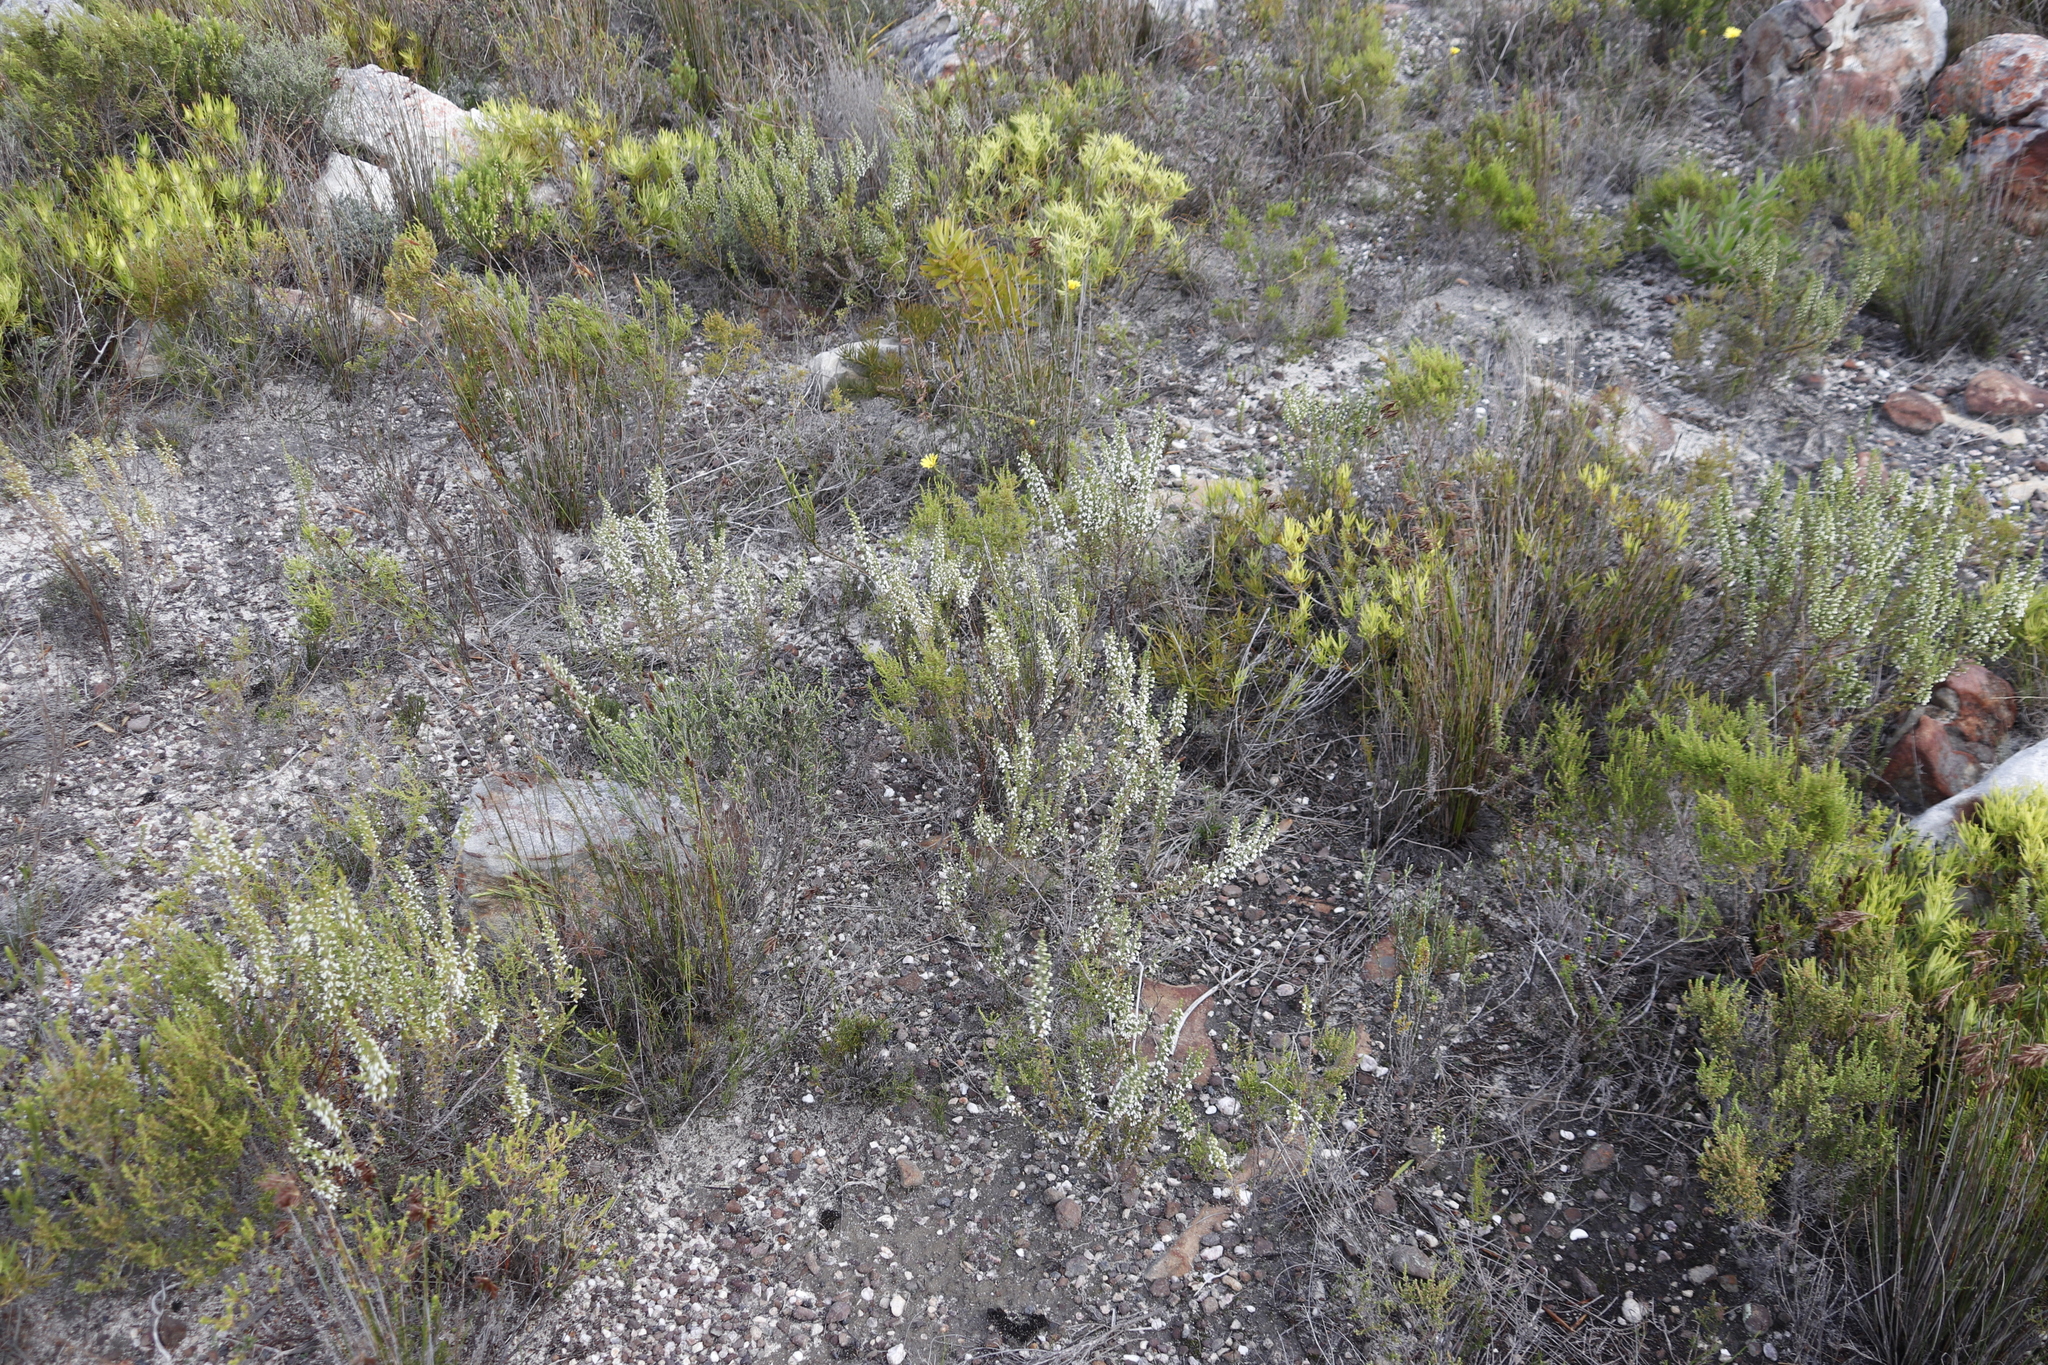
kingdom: Plantae
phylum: Tracheophyta
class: Magnoliopsida
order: Ericales
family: Ericaceae
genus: Erica
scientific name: Erica imbricata
